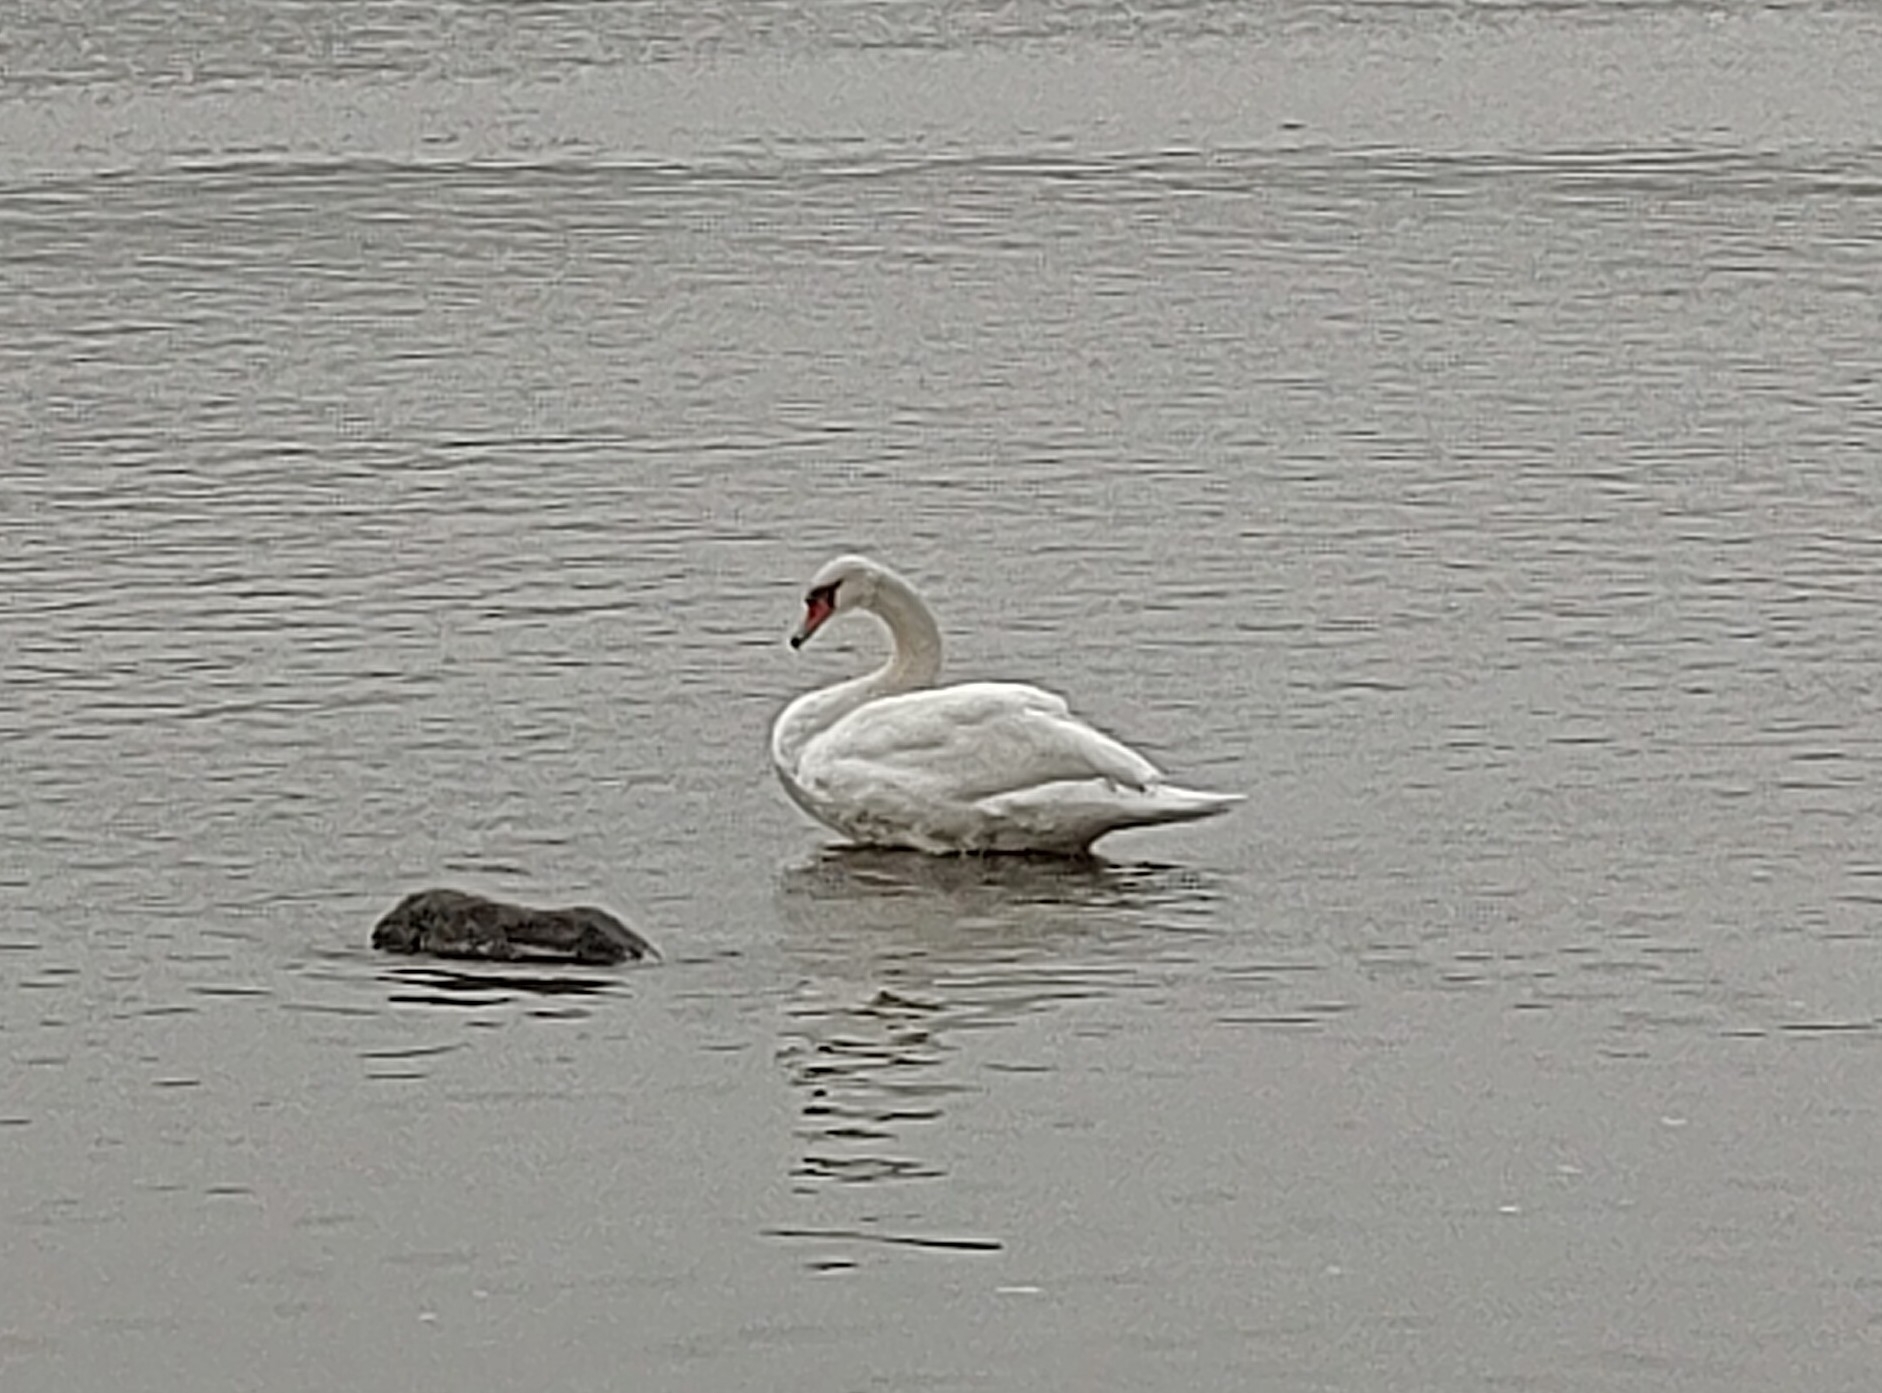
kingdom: Animalia
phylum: Chordata
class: Aves
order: Anseriformes
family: Anatidae
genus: Cygnus
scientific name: Cygnus olor
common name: Mute swan
